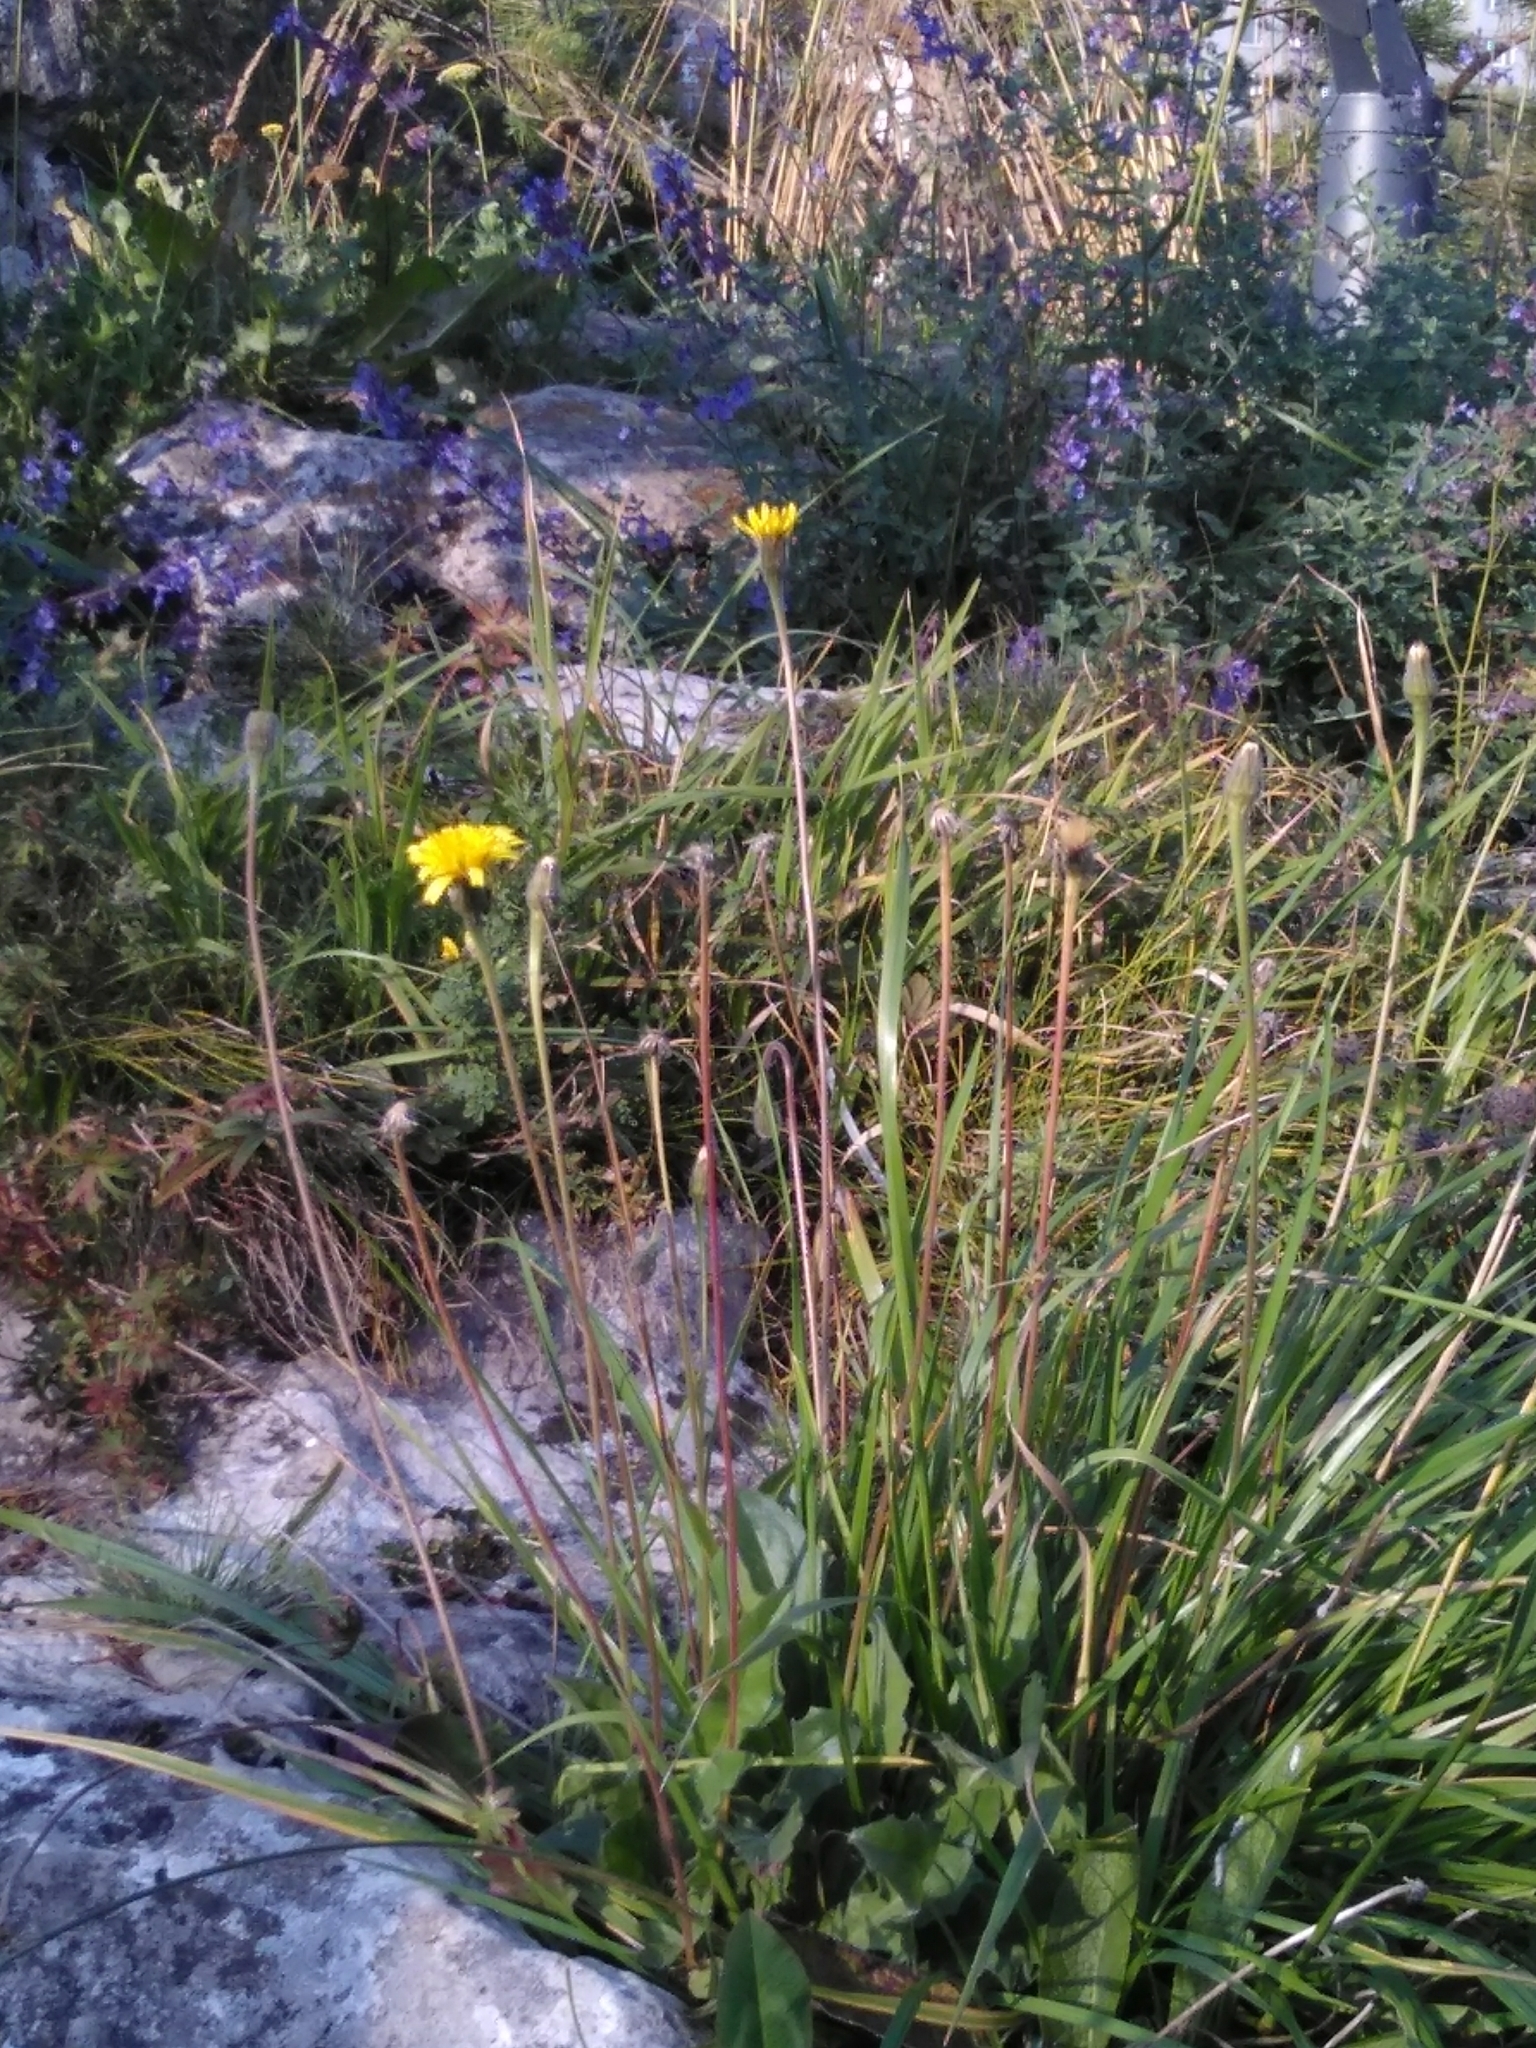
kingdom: Plantae
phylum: Tracheophyta
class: Magnoliopsida
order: Asterales
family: Asteraceae
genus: Leontodon
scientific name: Leontodon hispidus
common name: Rough hawkbit
